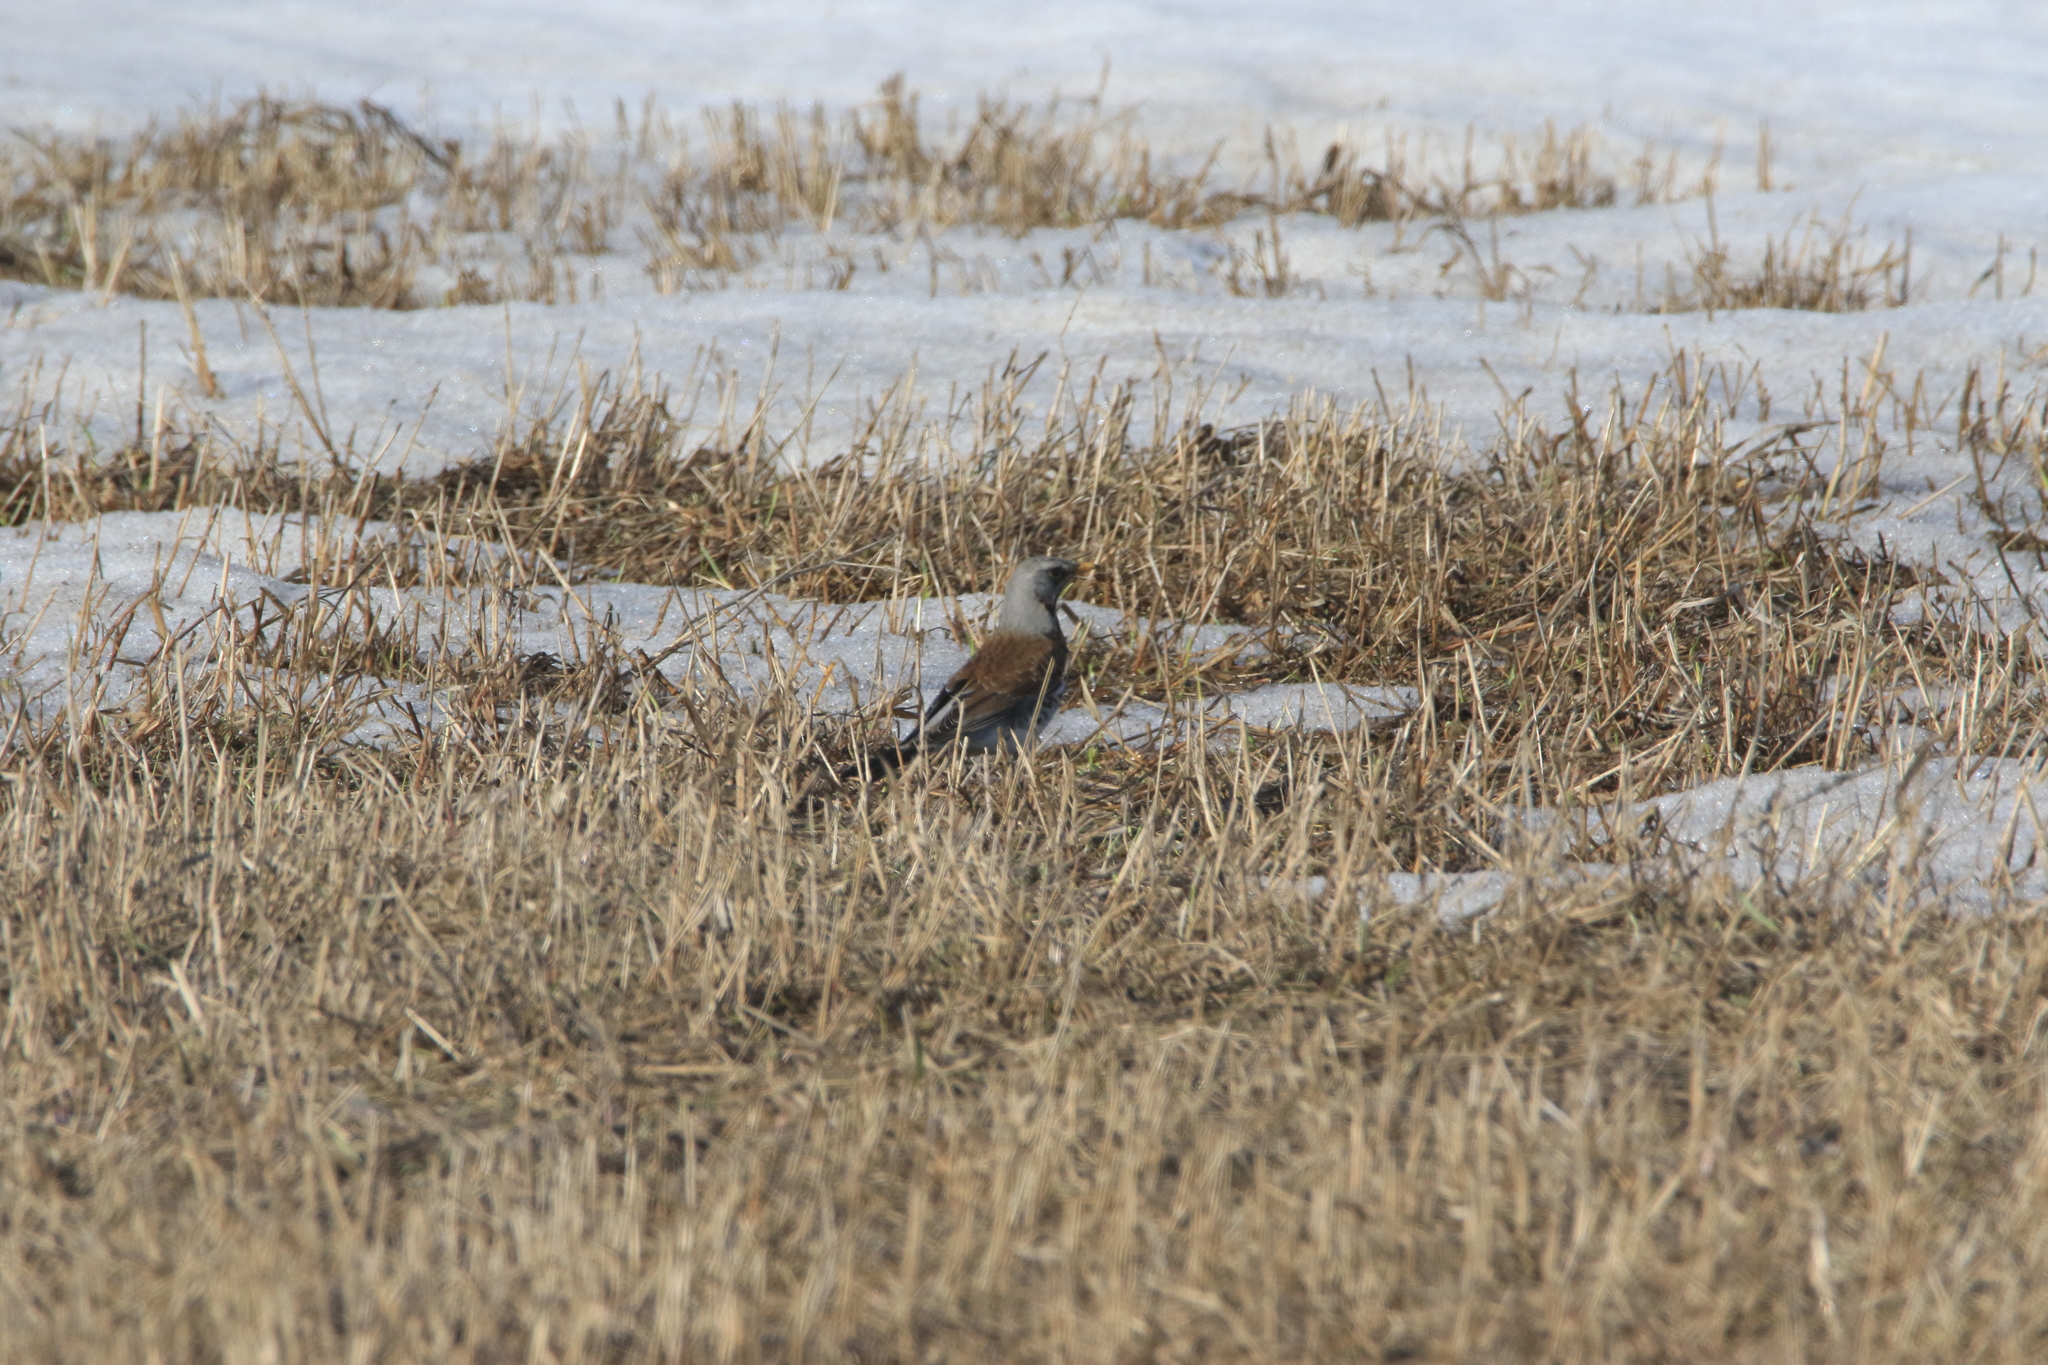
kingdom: Animalia
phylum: Chordata
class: Aves
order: Passeriformes
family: Turdidae
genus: Turdus
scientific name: Turdus pilaris
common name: Fieldfare
